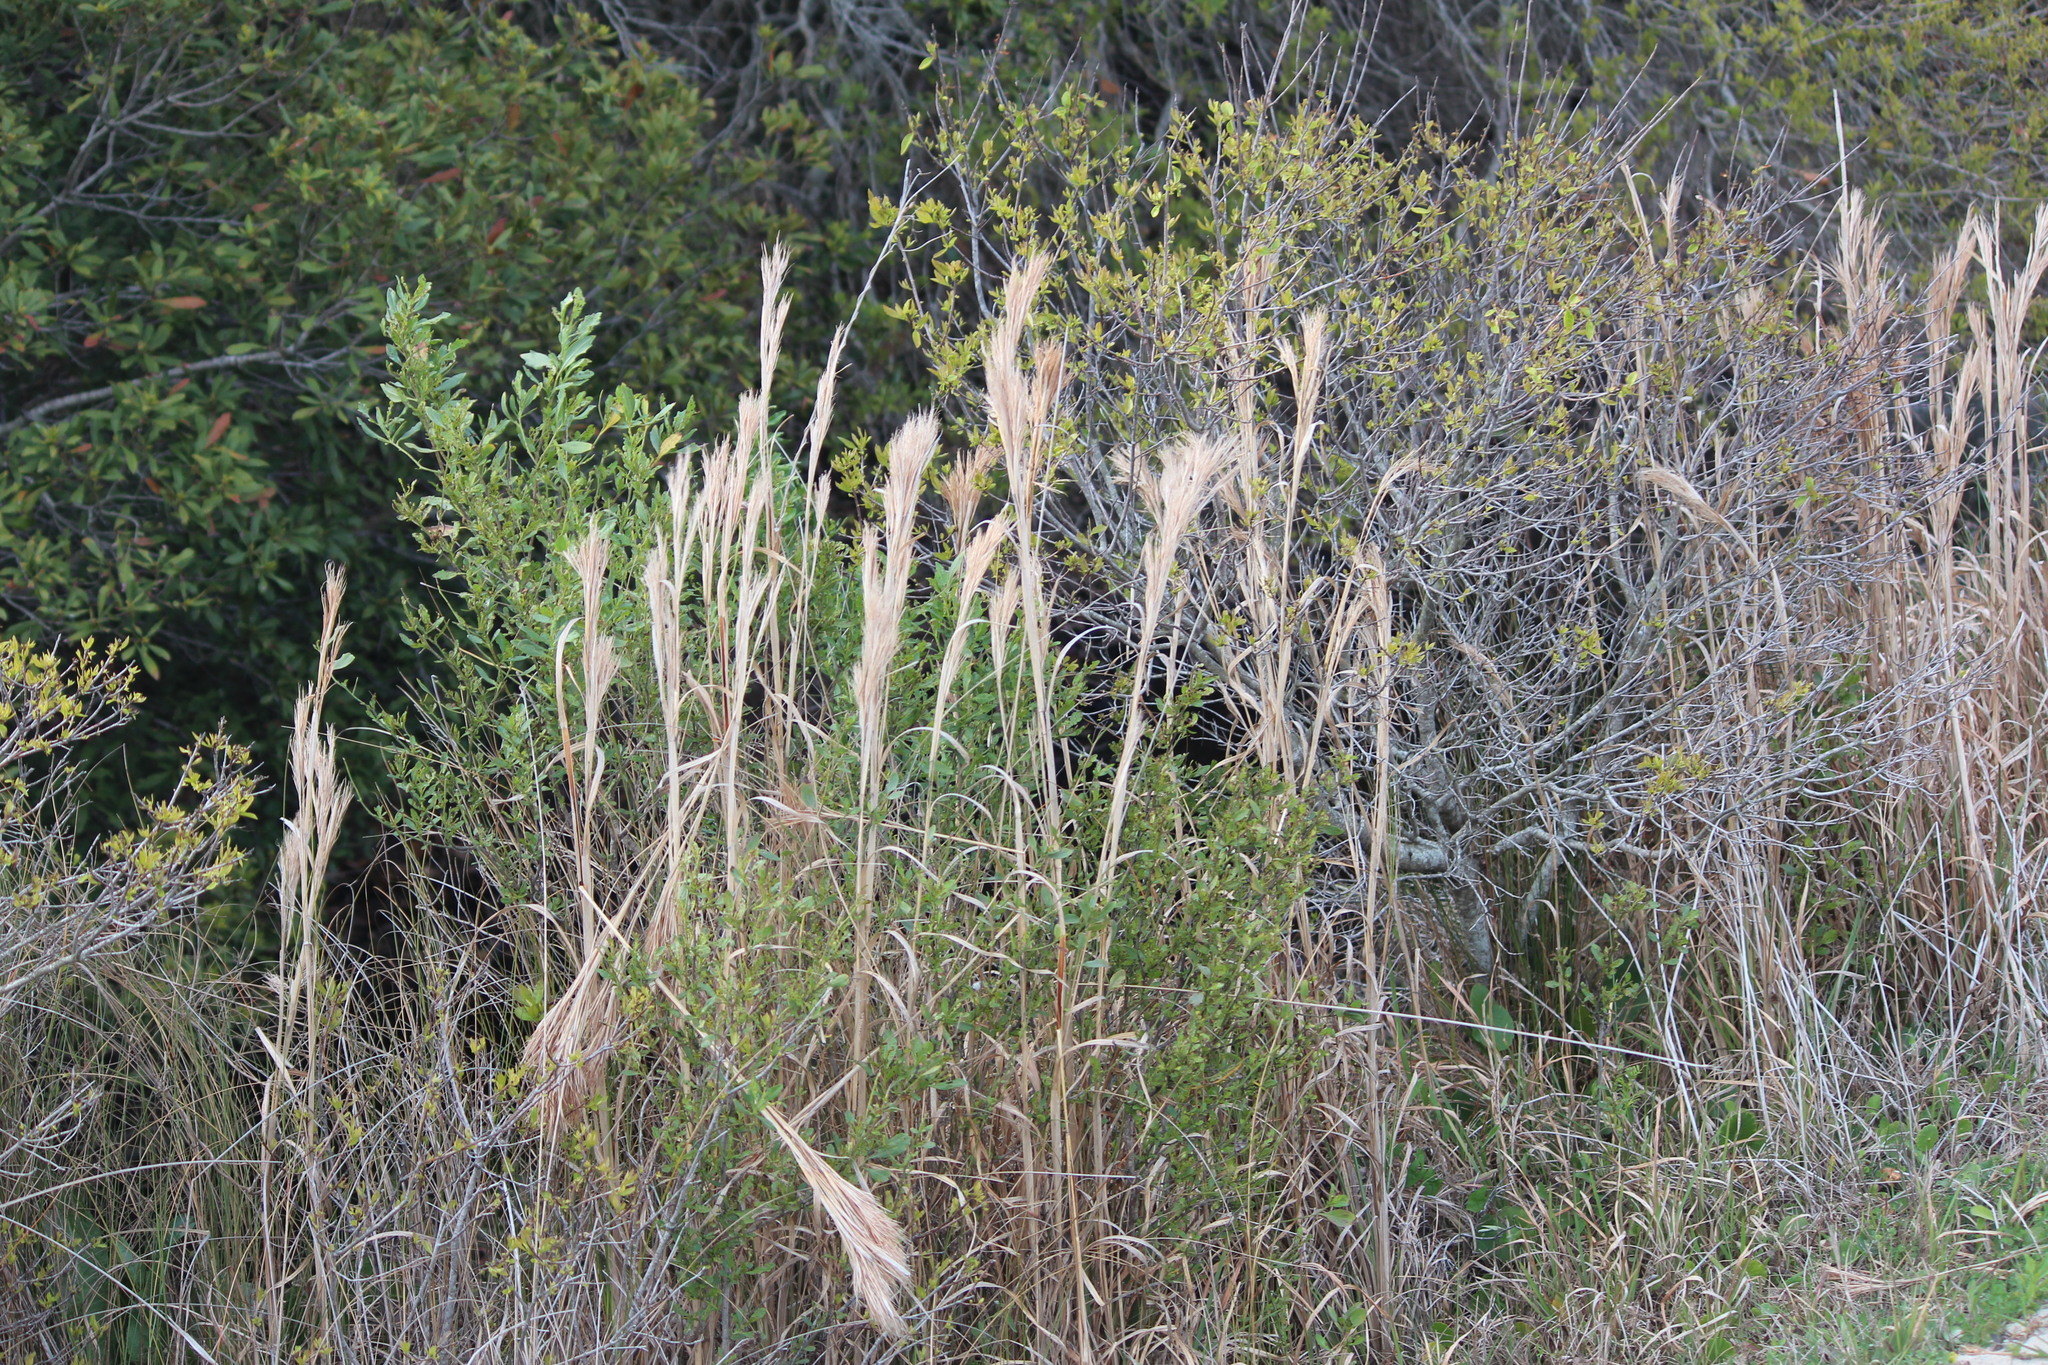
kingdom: Plantae
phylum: Tracheophyta
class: Liliopsida
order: Poales
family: Poaceae
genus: Andropogon
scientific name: Andropogon tenuispatheus
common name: Bushy bluestem
